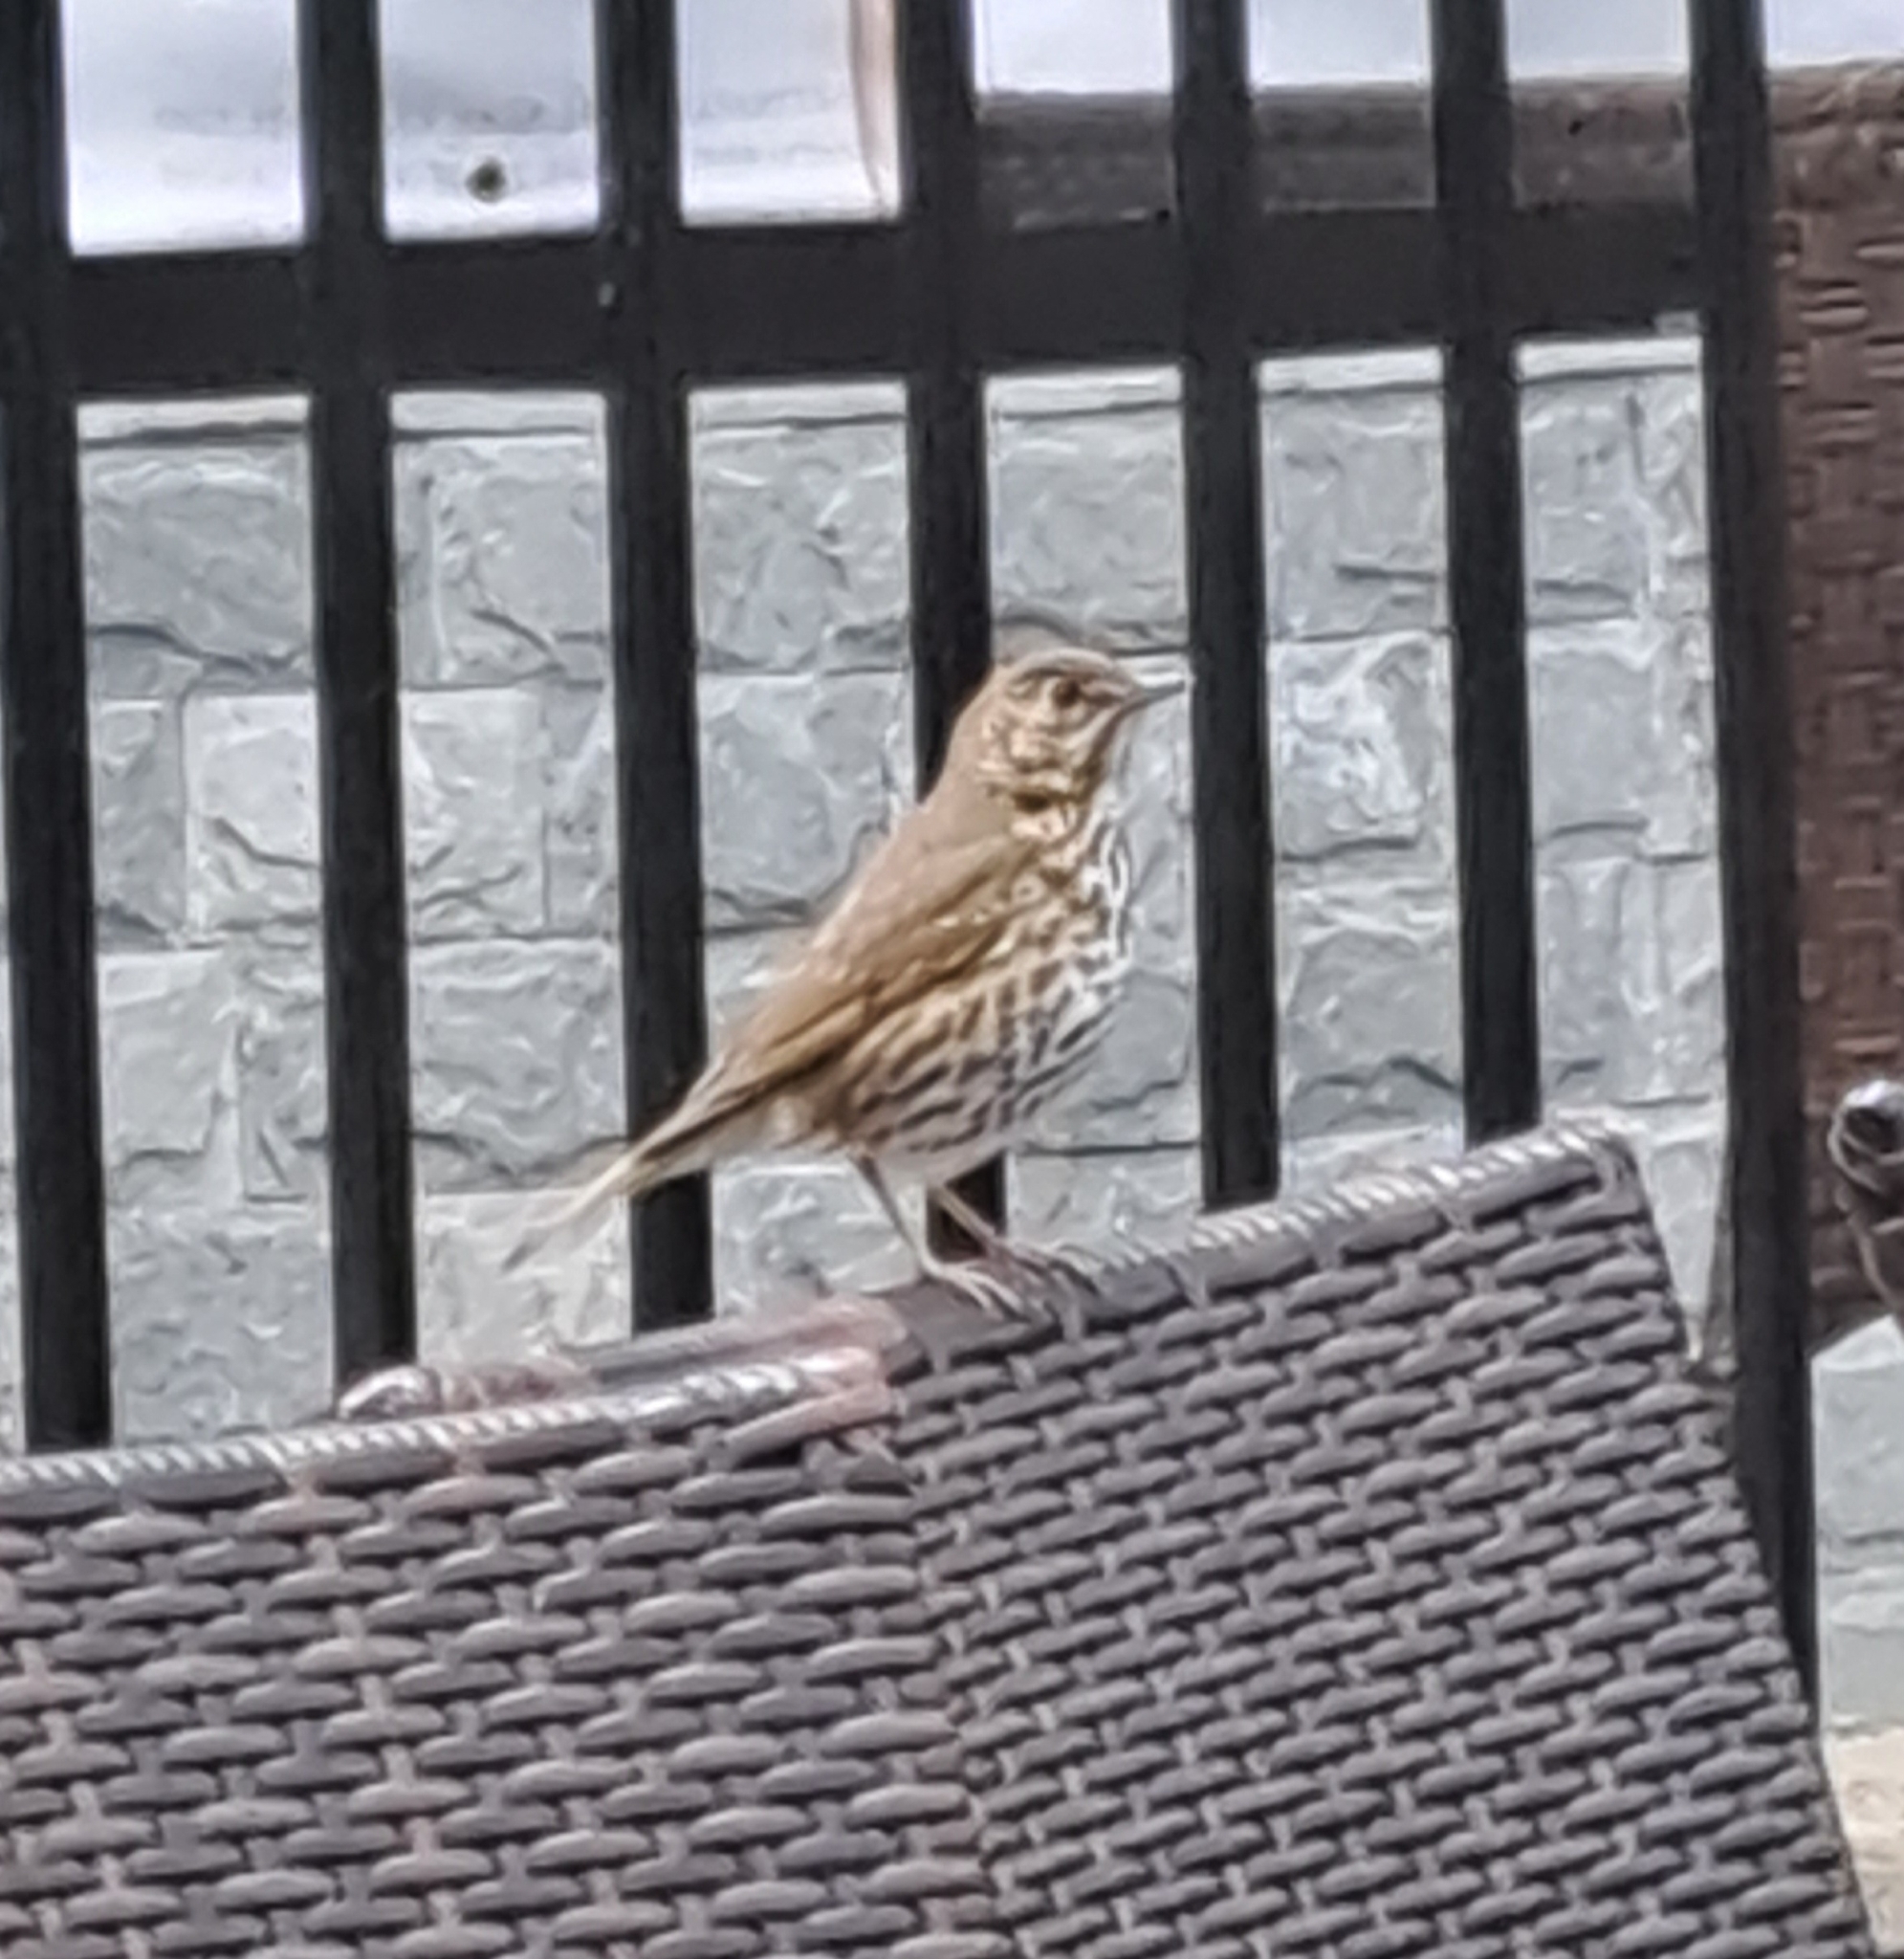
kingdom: Animalia
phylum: Chordata
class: Aves
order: Passeriformes
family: Turdidae
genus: Turdus
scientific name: Turdus philomelos
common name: Song thrush
